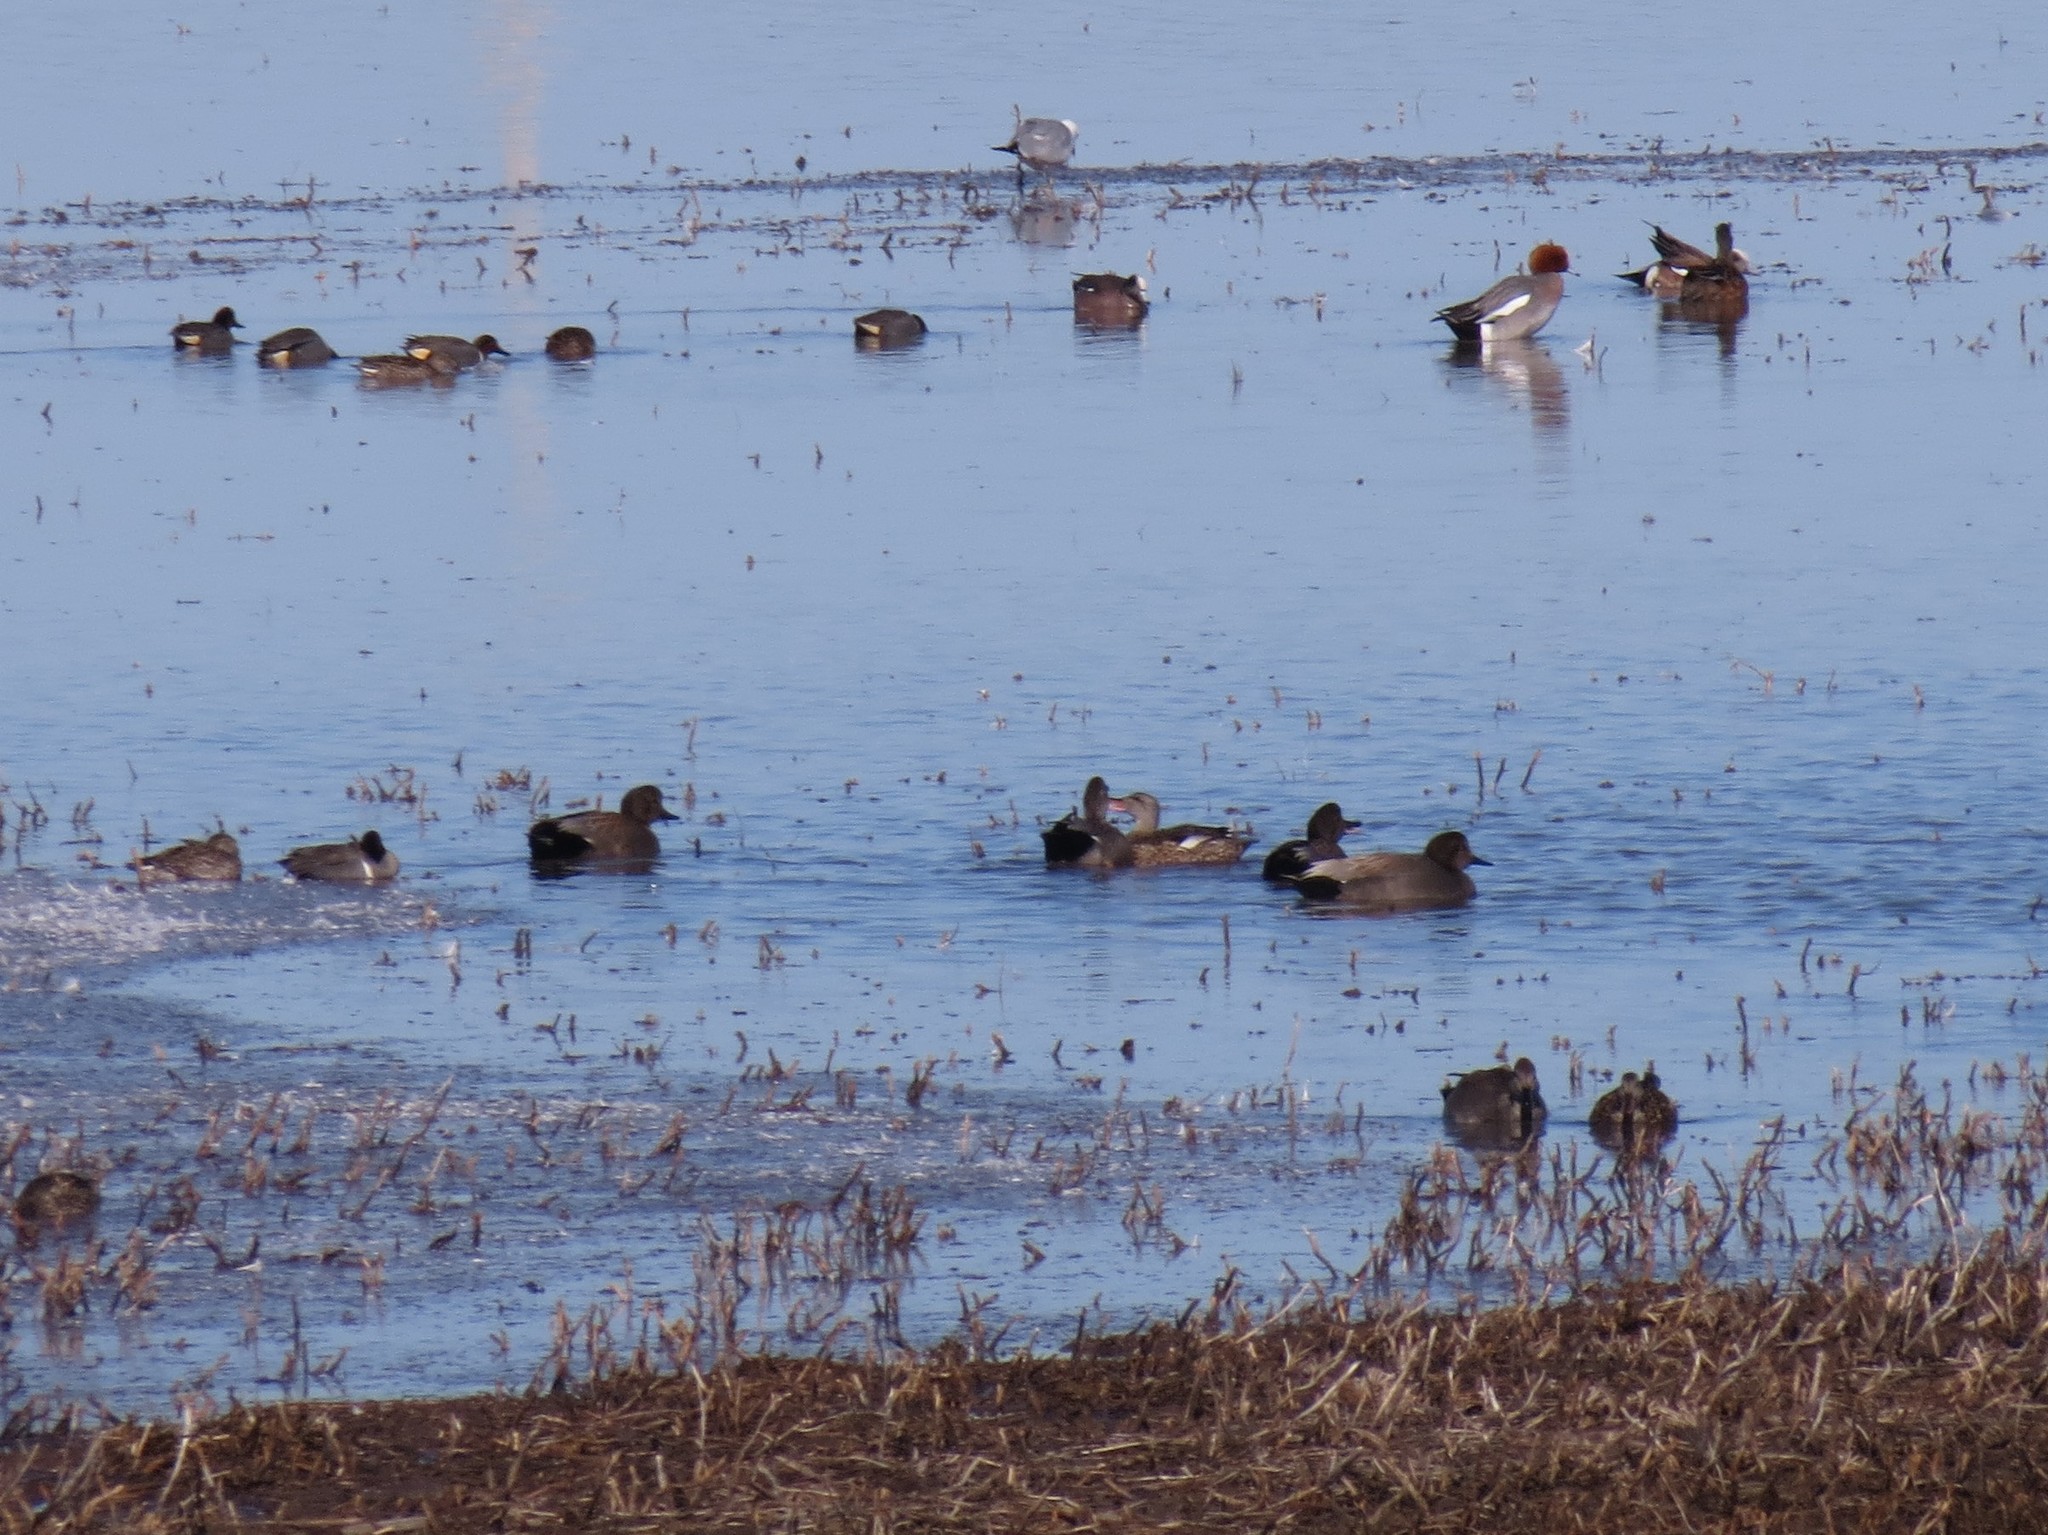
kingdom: Animalia
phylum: Chordata
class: Aves
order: Anseriformes
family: Anatidae
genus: Mareca
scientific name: Mareca strepera
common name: Gadwall
